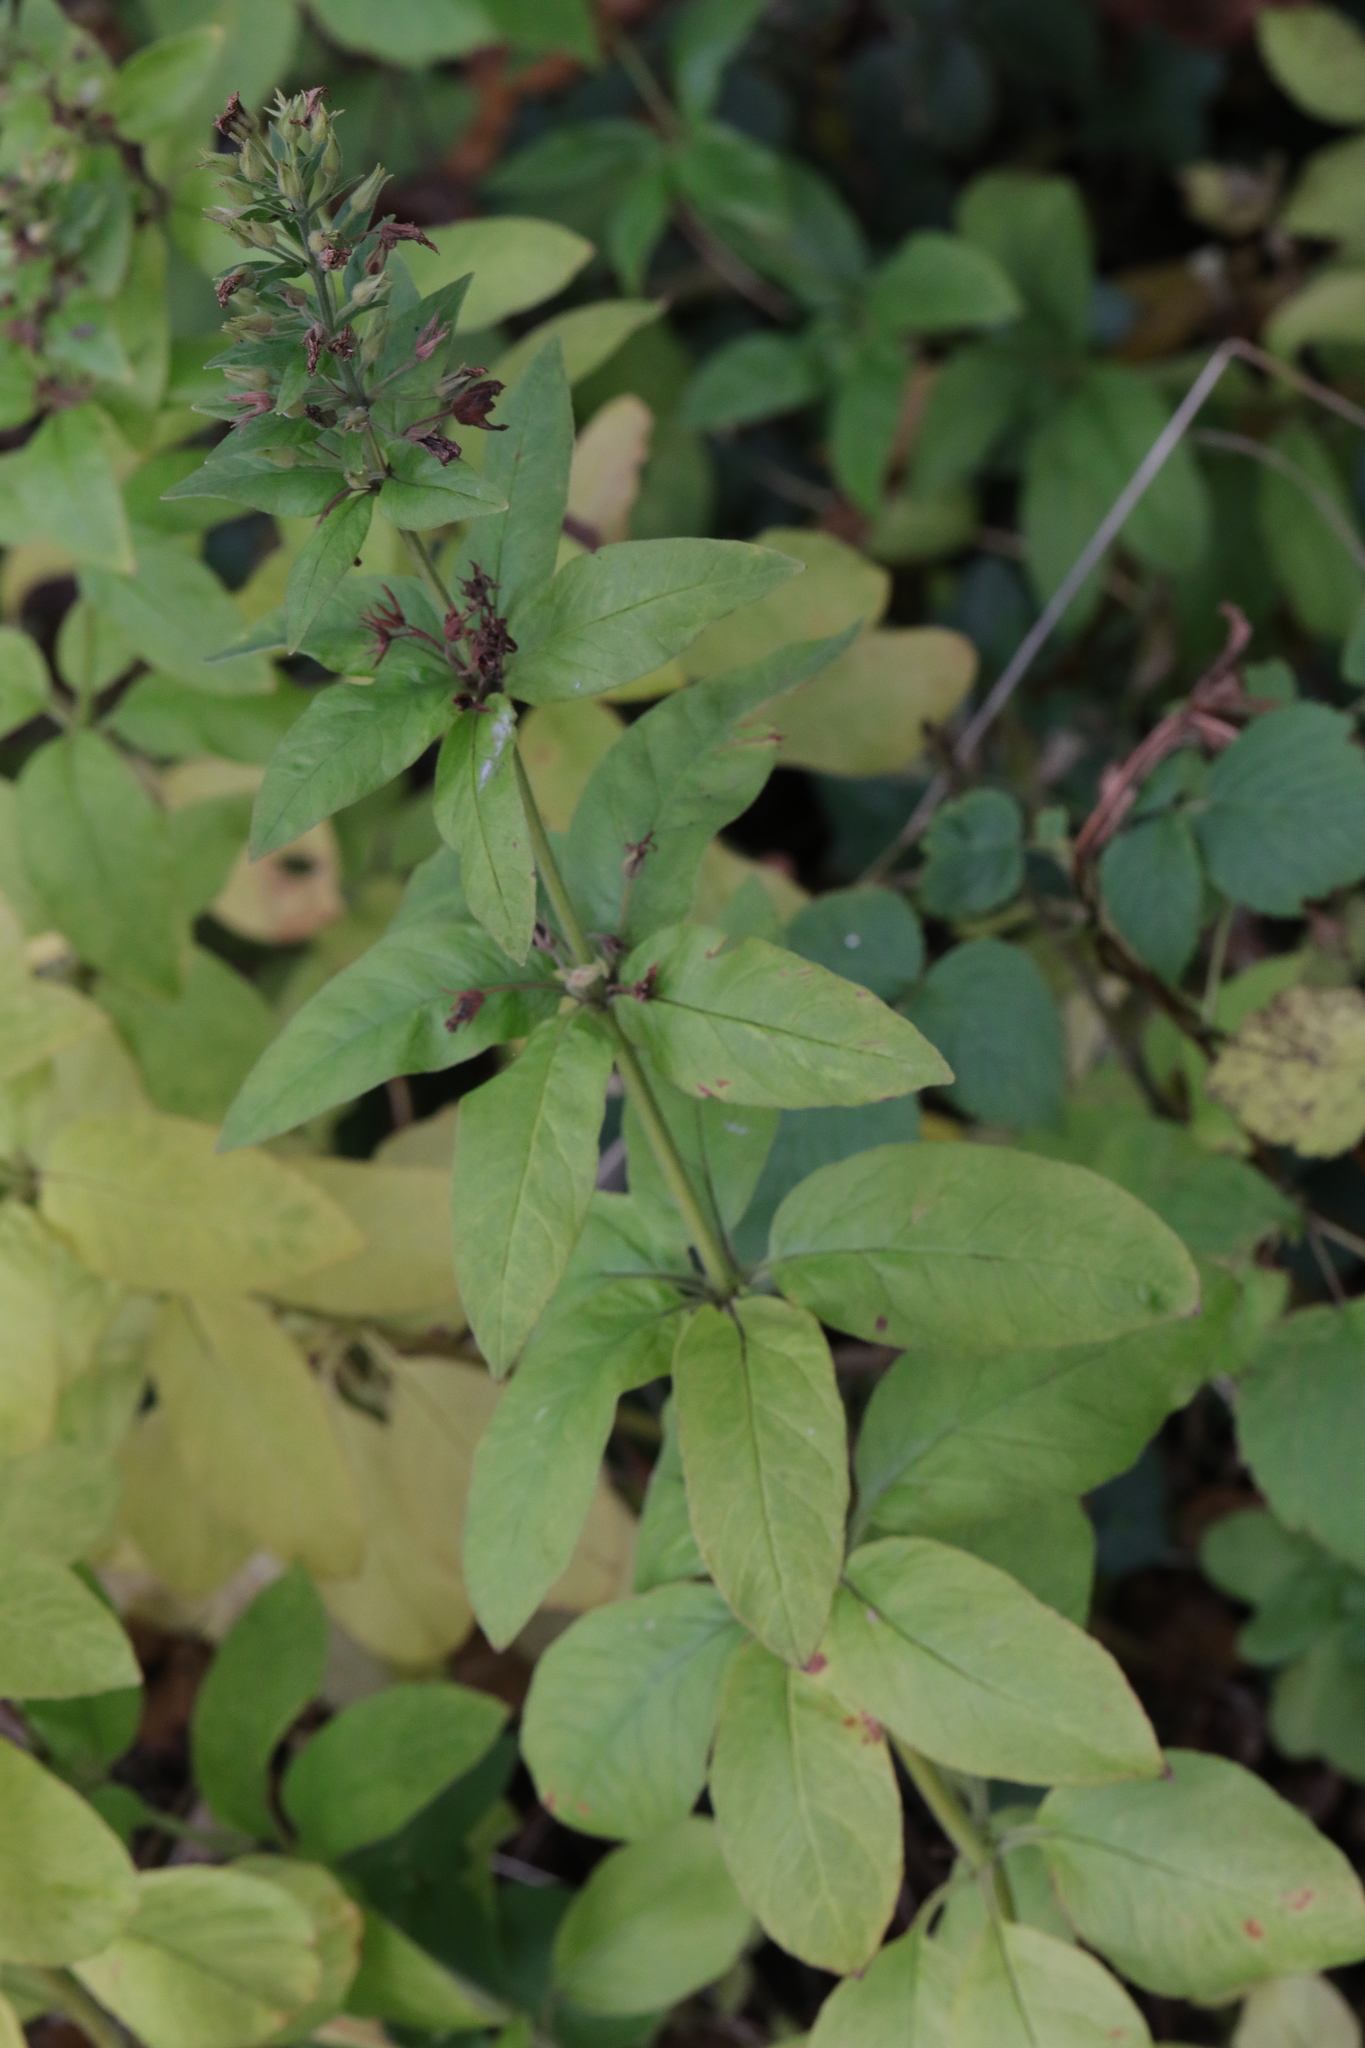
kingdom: Plantae
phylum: Tracheophyta
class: Magnoliopsida
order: Ericales
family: Primulaceae
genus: Lysimachia
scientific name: Lysimachia punctata
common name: Dotted loosestrife
